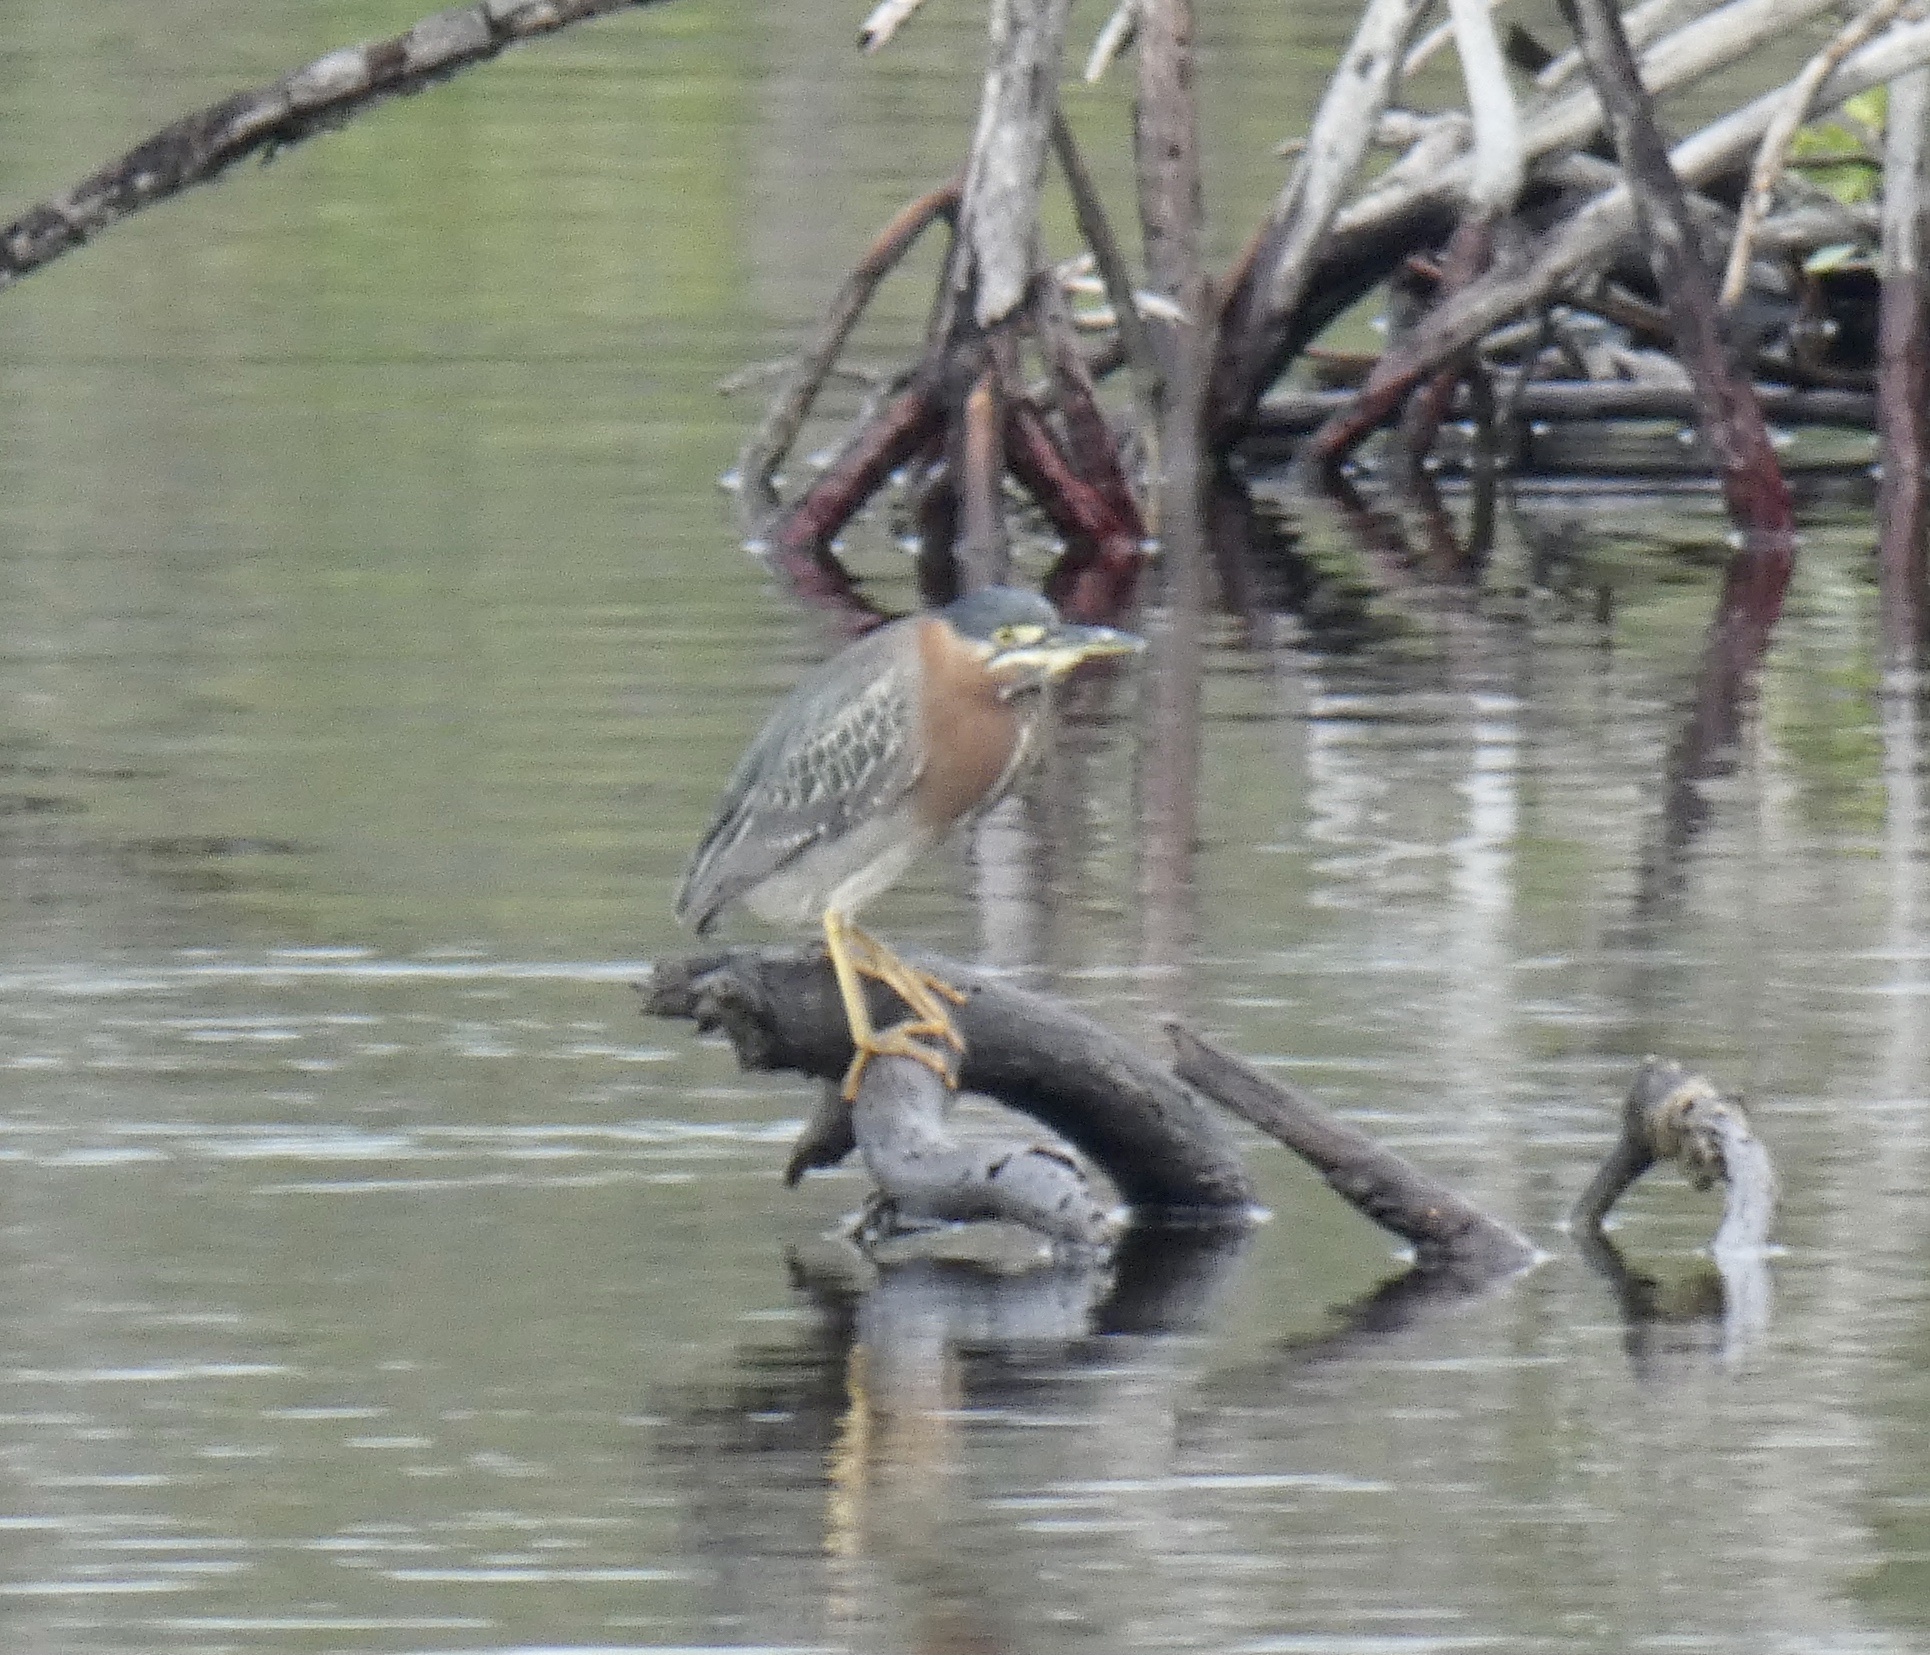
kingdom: Animalia
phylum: Chordata
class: Aves
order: Pelecaniformes
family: Ardeidae
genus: Butorides
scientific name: Butorides virescens
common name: Green heron
